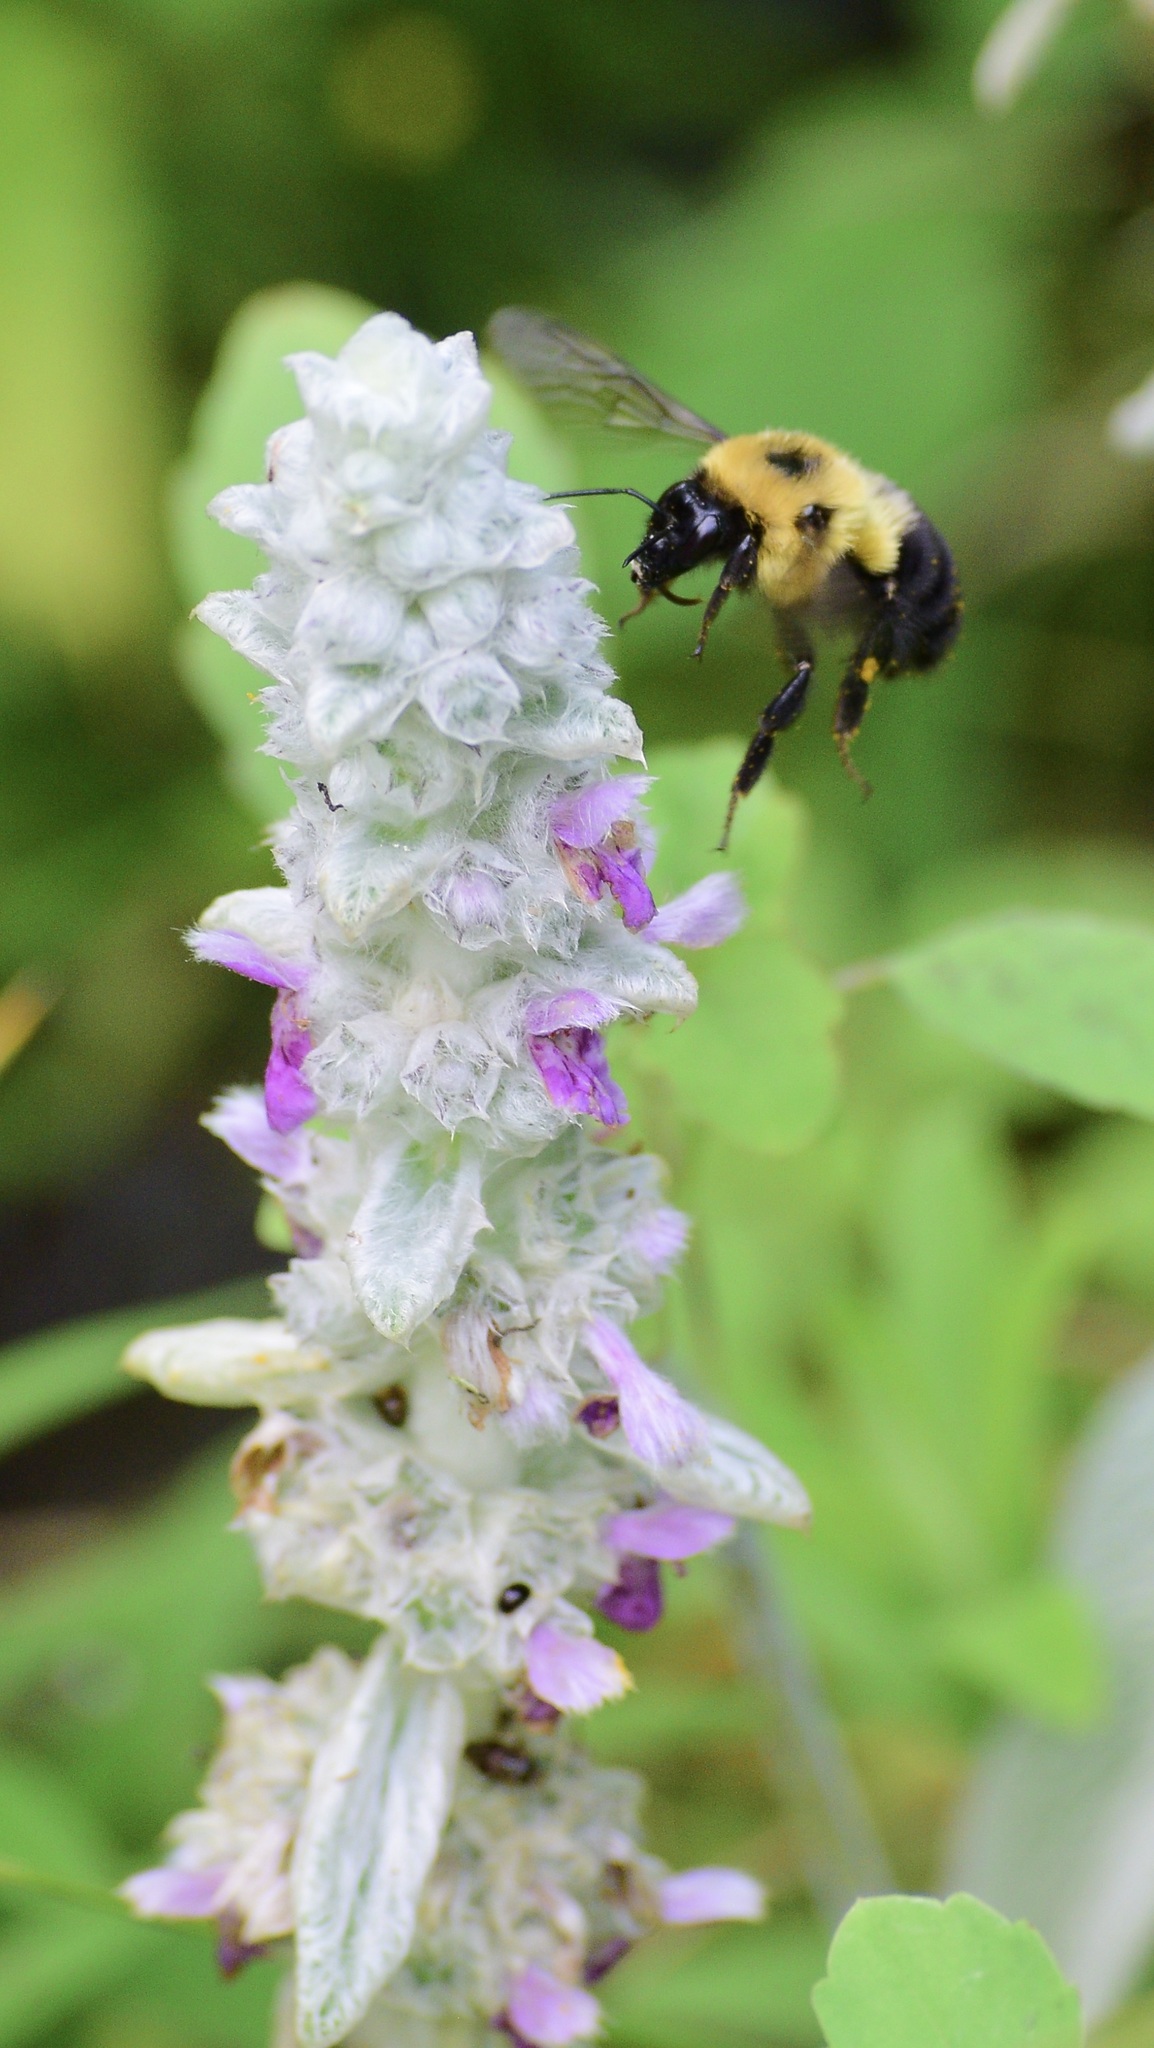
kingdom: Animalia
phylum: Arthropoda
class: Insecta
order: Hymenoptera
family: Apidae
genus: Bombus
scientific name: Bombus bimaculatus
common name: Two-spotted bumble bee
